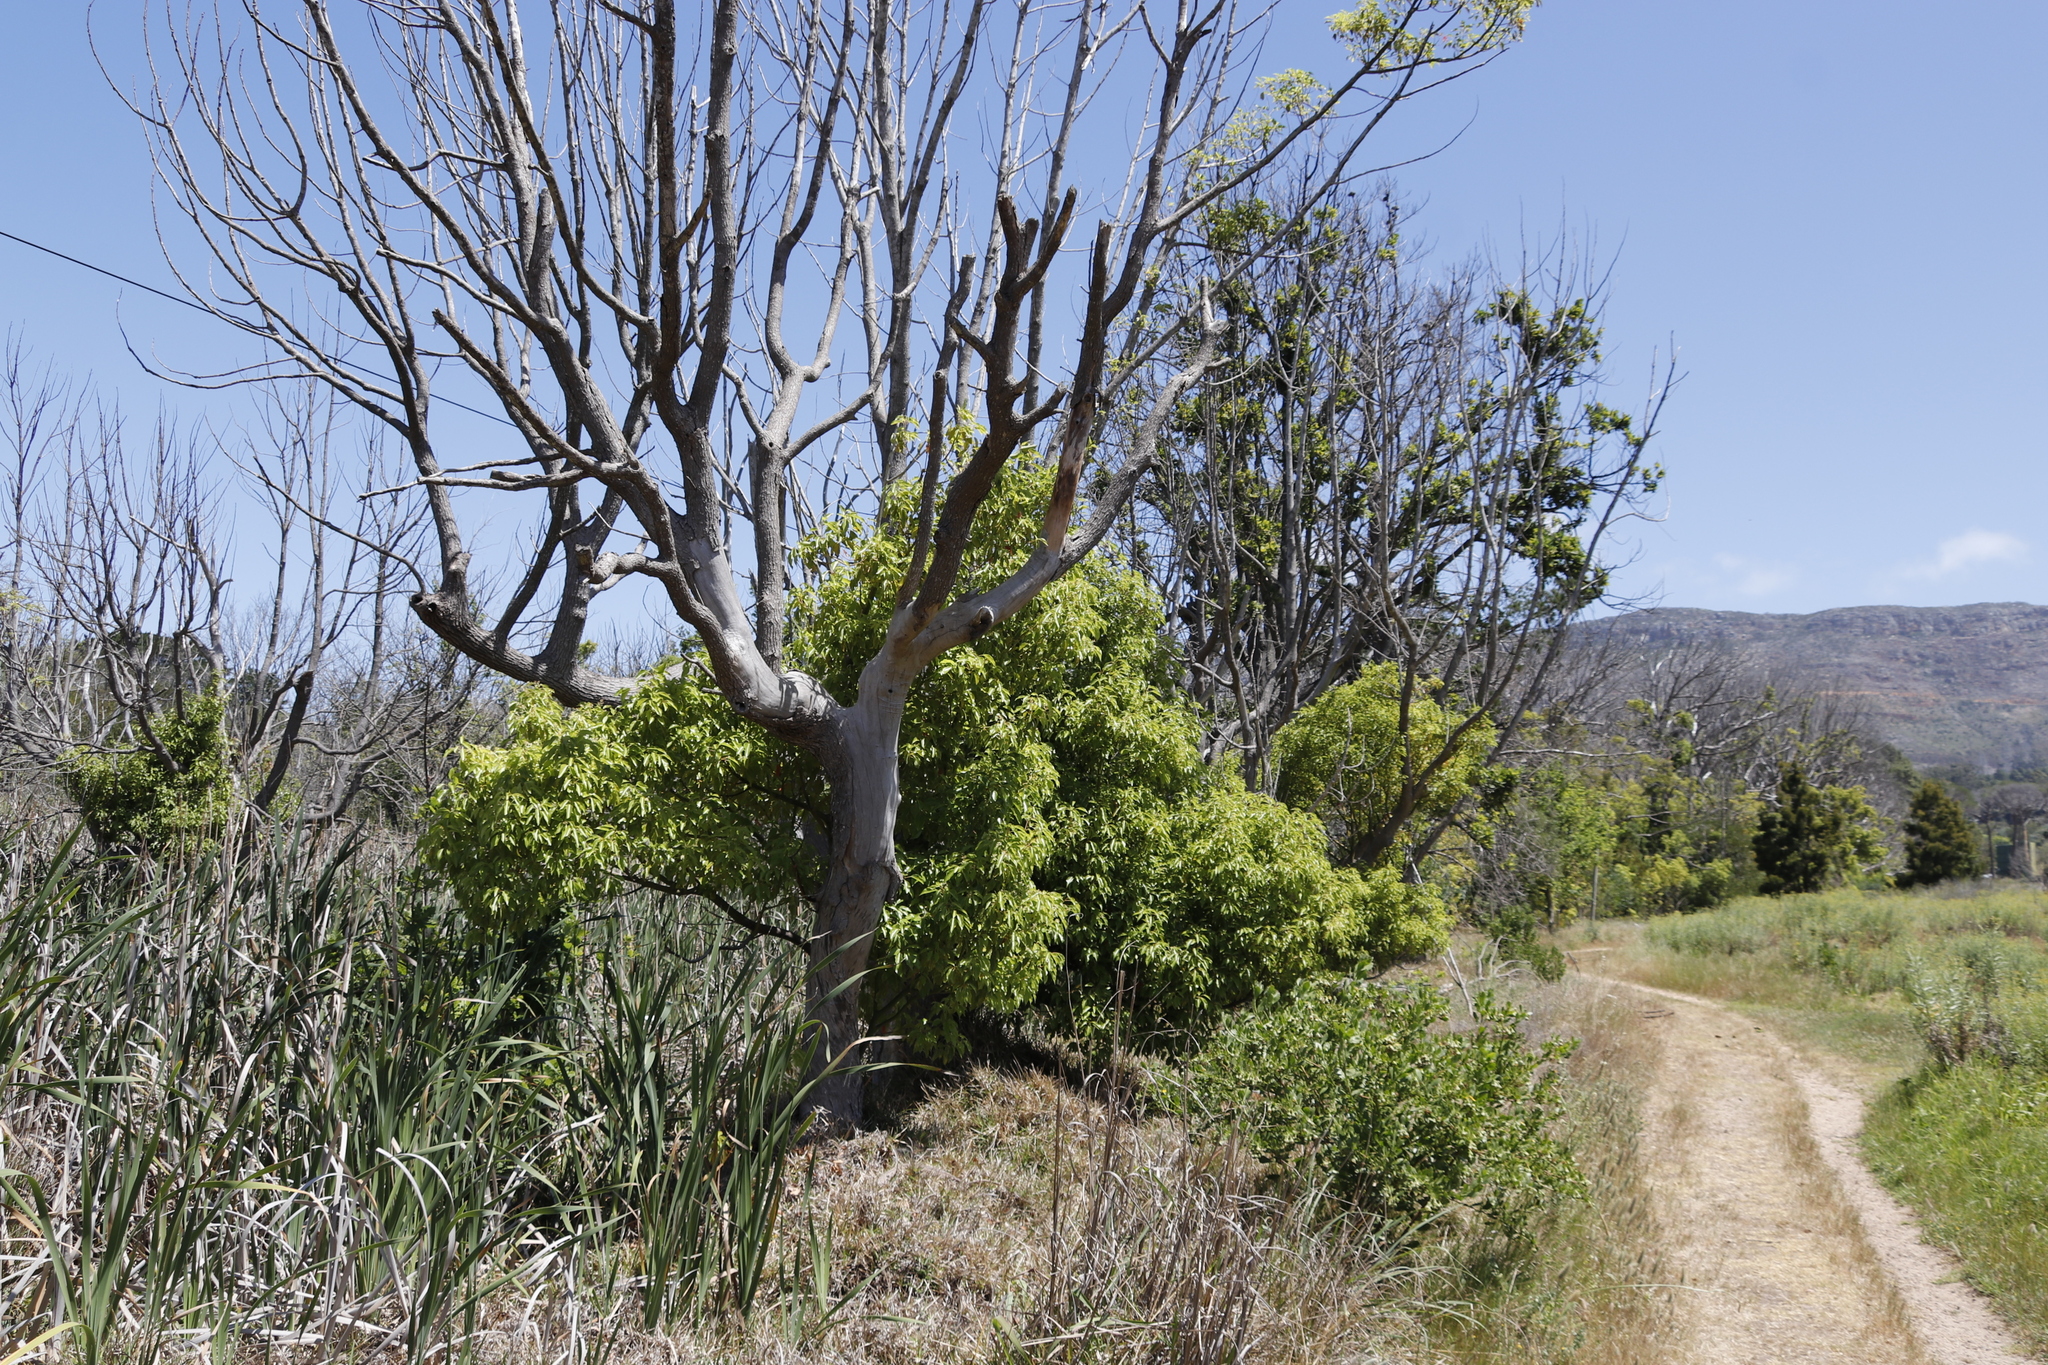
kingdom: Plantae
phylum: Tracheophyta
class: Magnoliopsida
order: Laurales
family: Lauraceae
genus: Cinnamomum
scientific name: Cinnamomum camphora
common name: Camphortree
